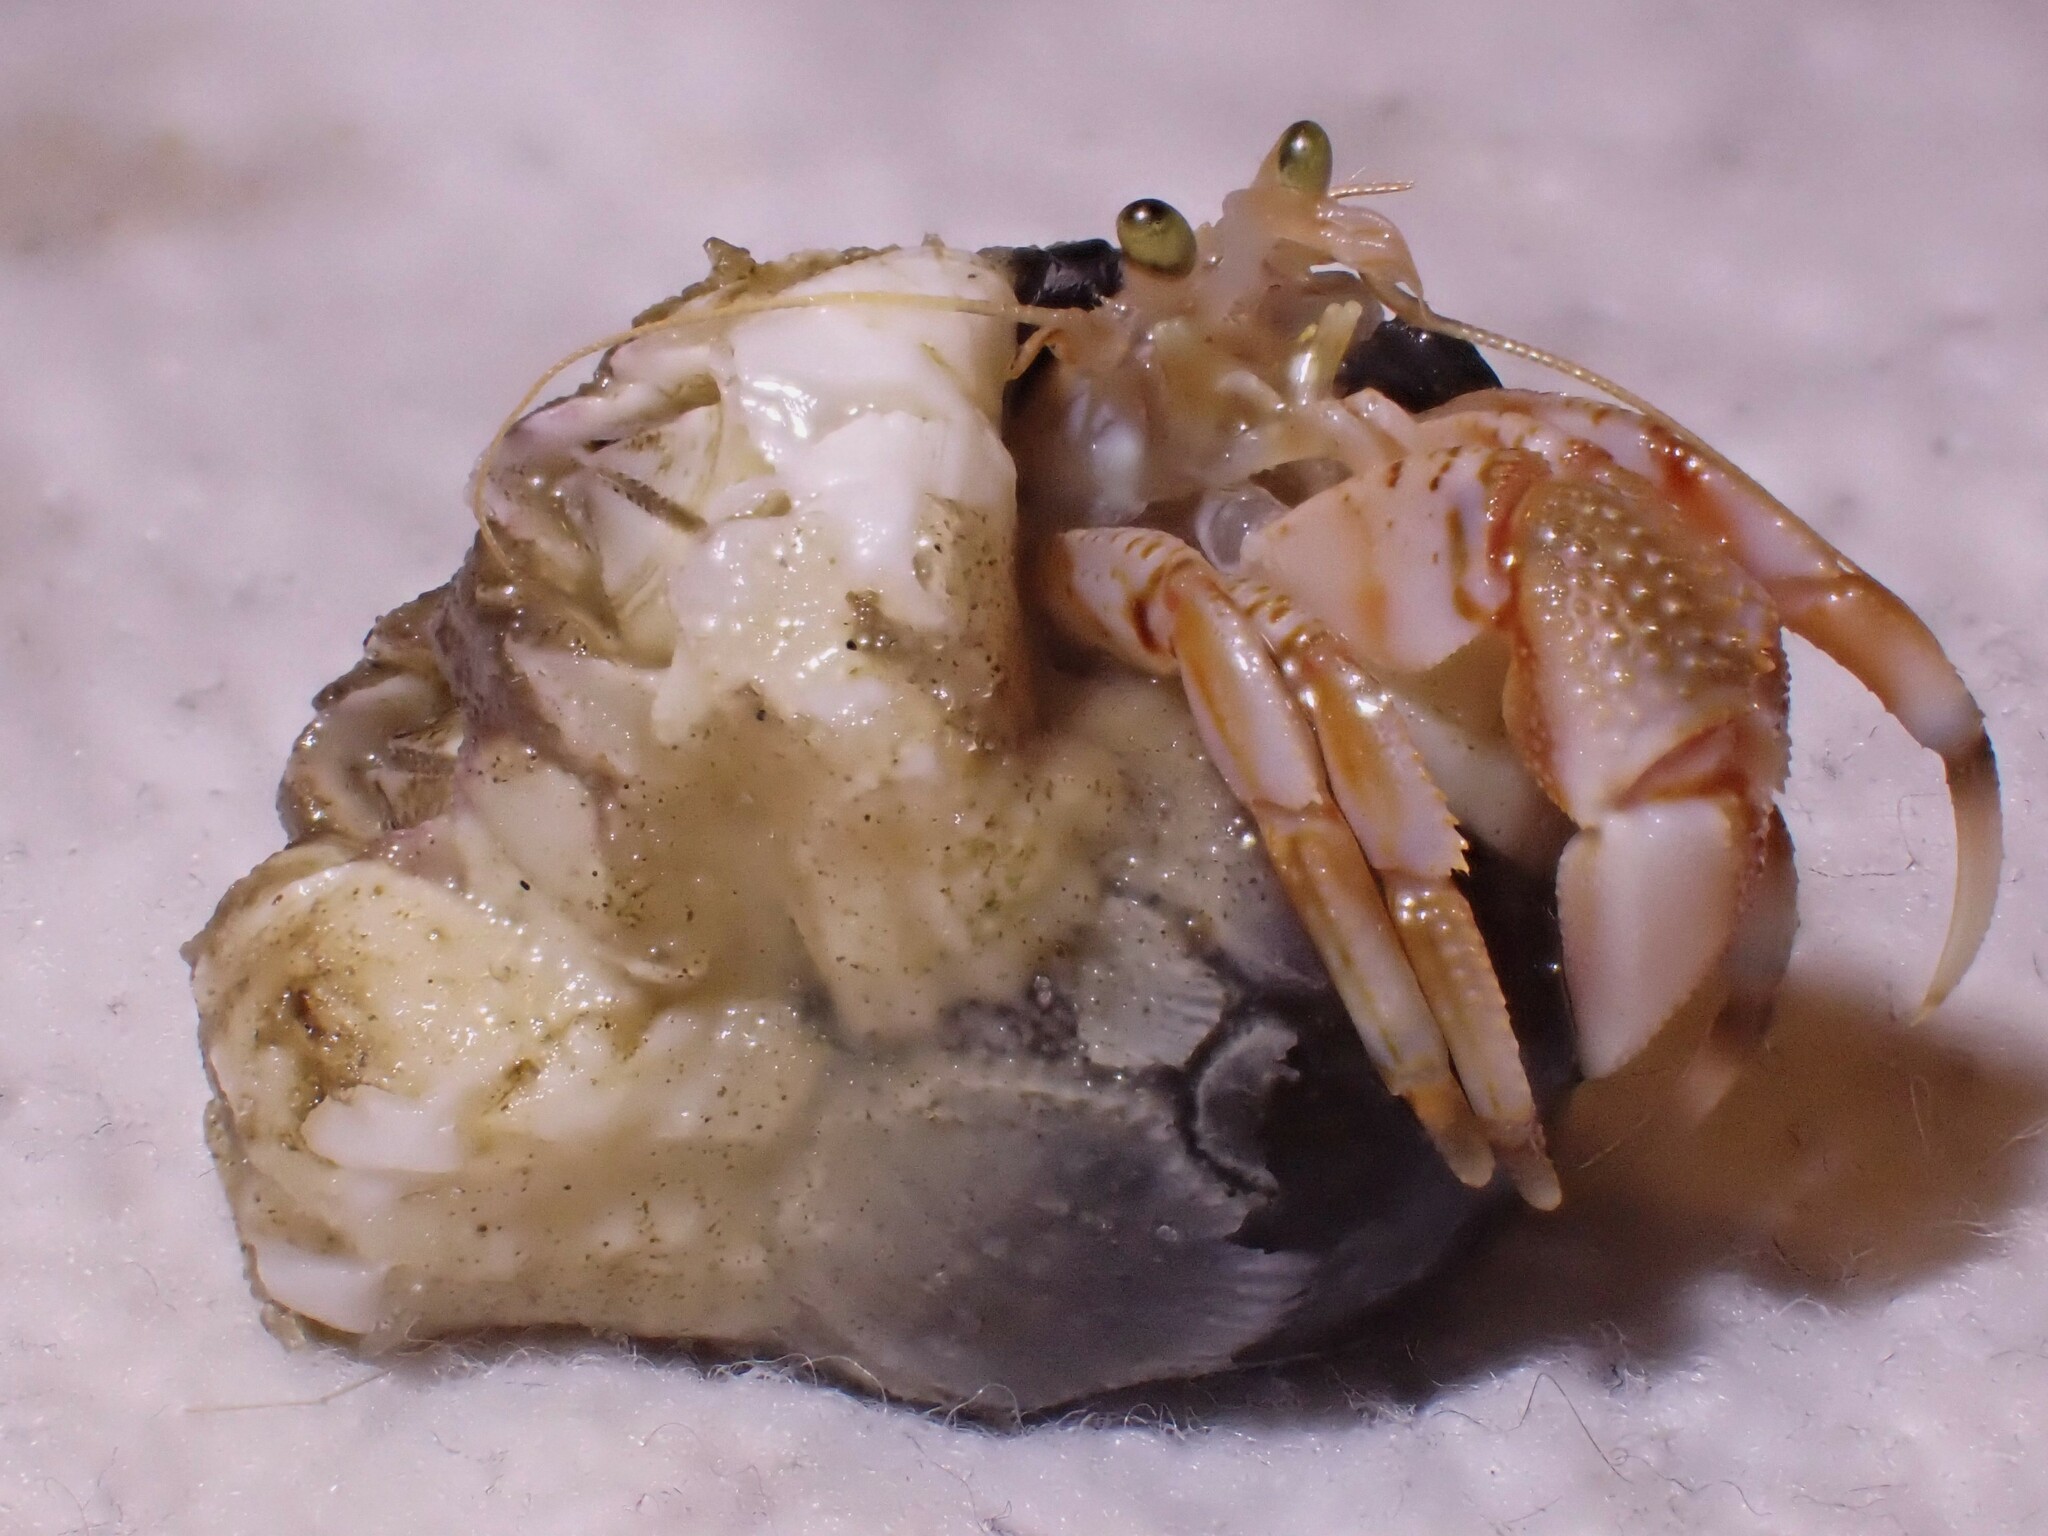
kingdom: Animalia
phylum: Arthropoda
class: Malacostraca
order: Decapoda
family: Paguridae
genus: Pagurus
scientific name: Pagurus bernhardus
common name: Hermit crab
